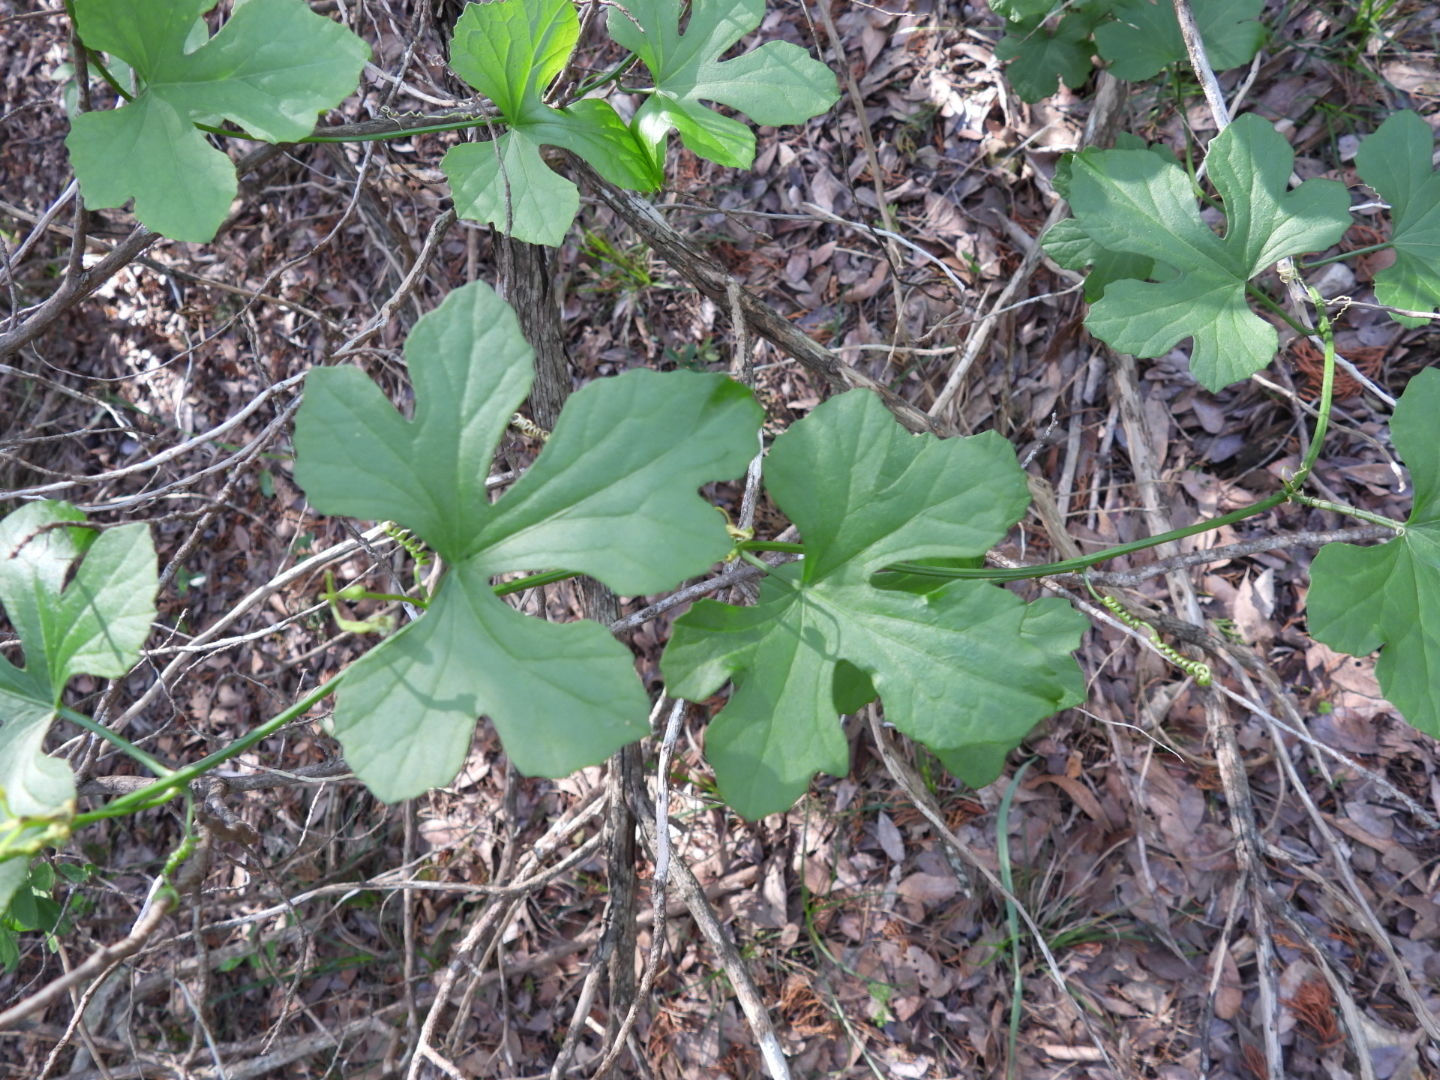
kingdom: Plantae
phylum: Tracheophyta
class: Magnoliopsida
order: Cucurbitales
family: Cucurbitaceae
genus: Ibervillea
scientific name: Ibervillea lindheimeri
